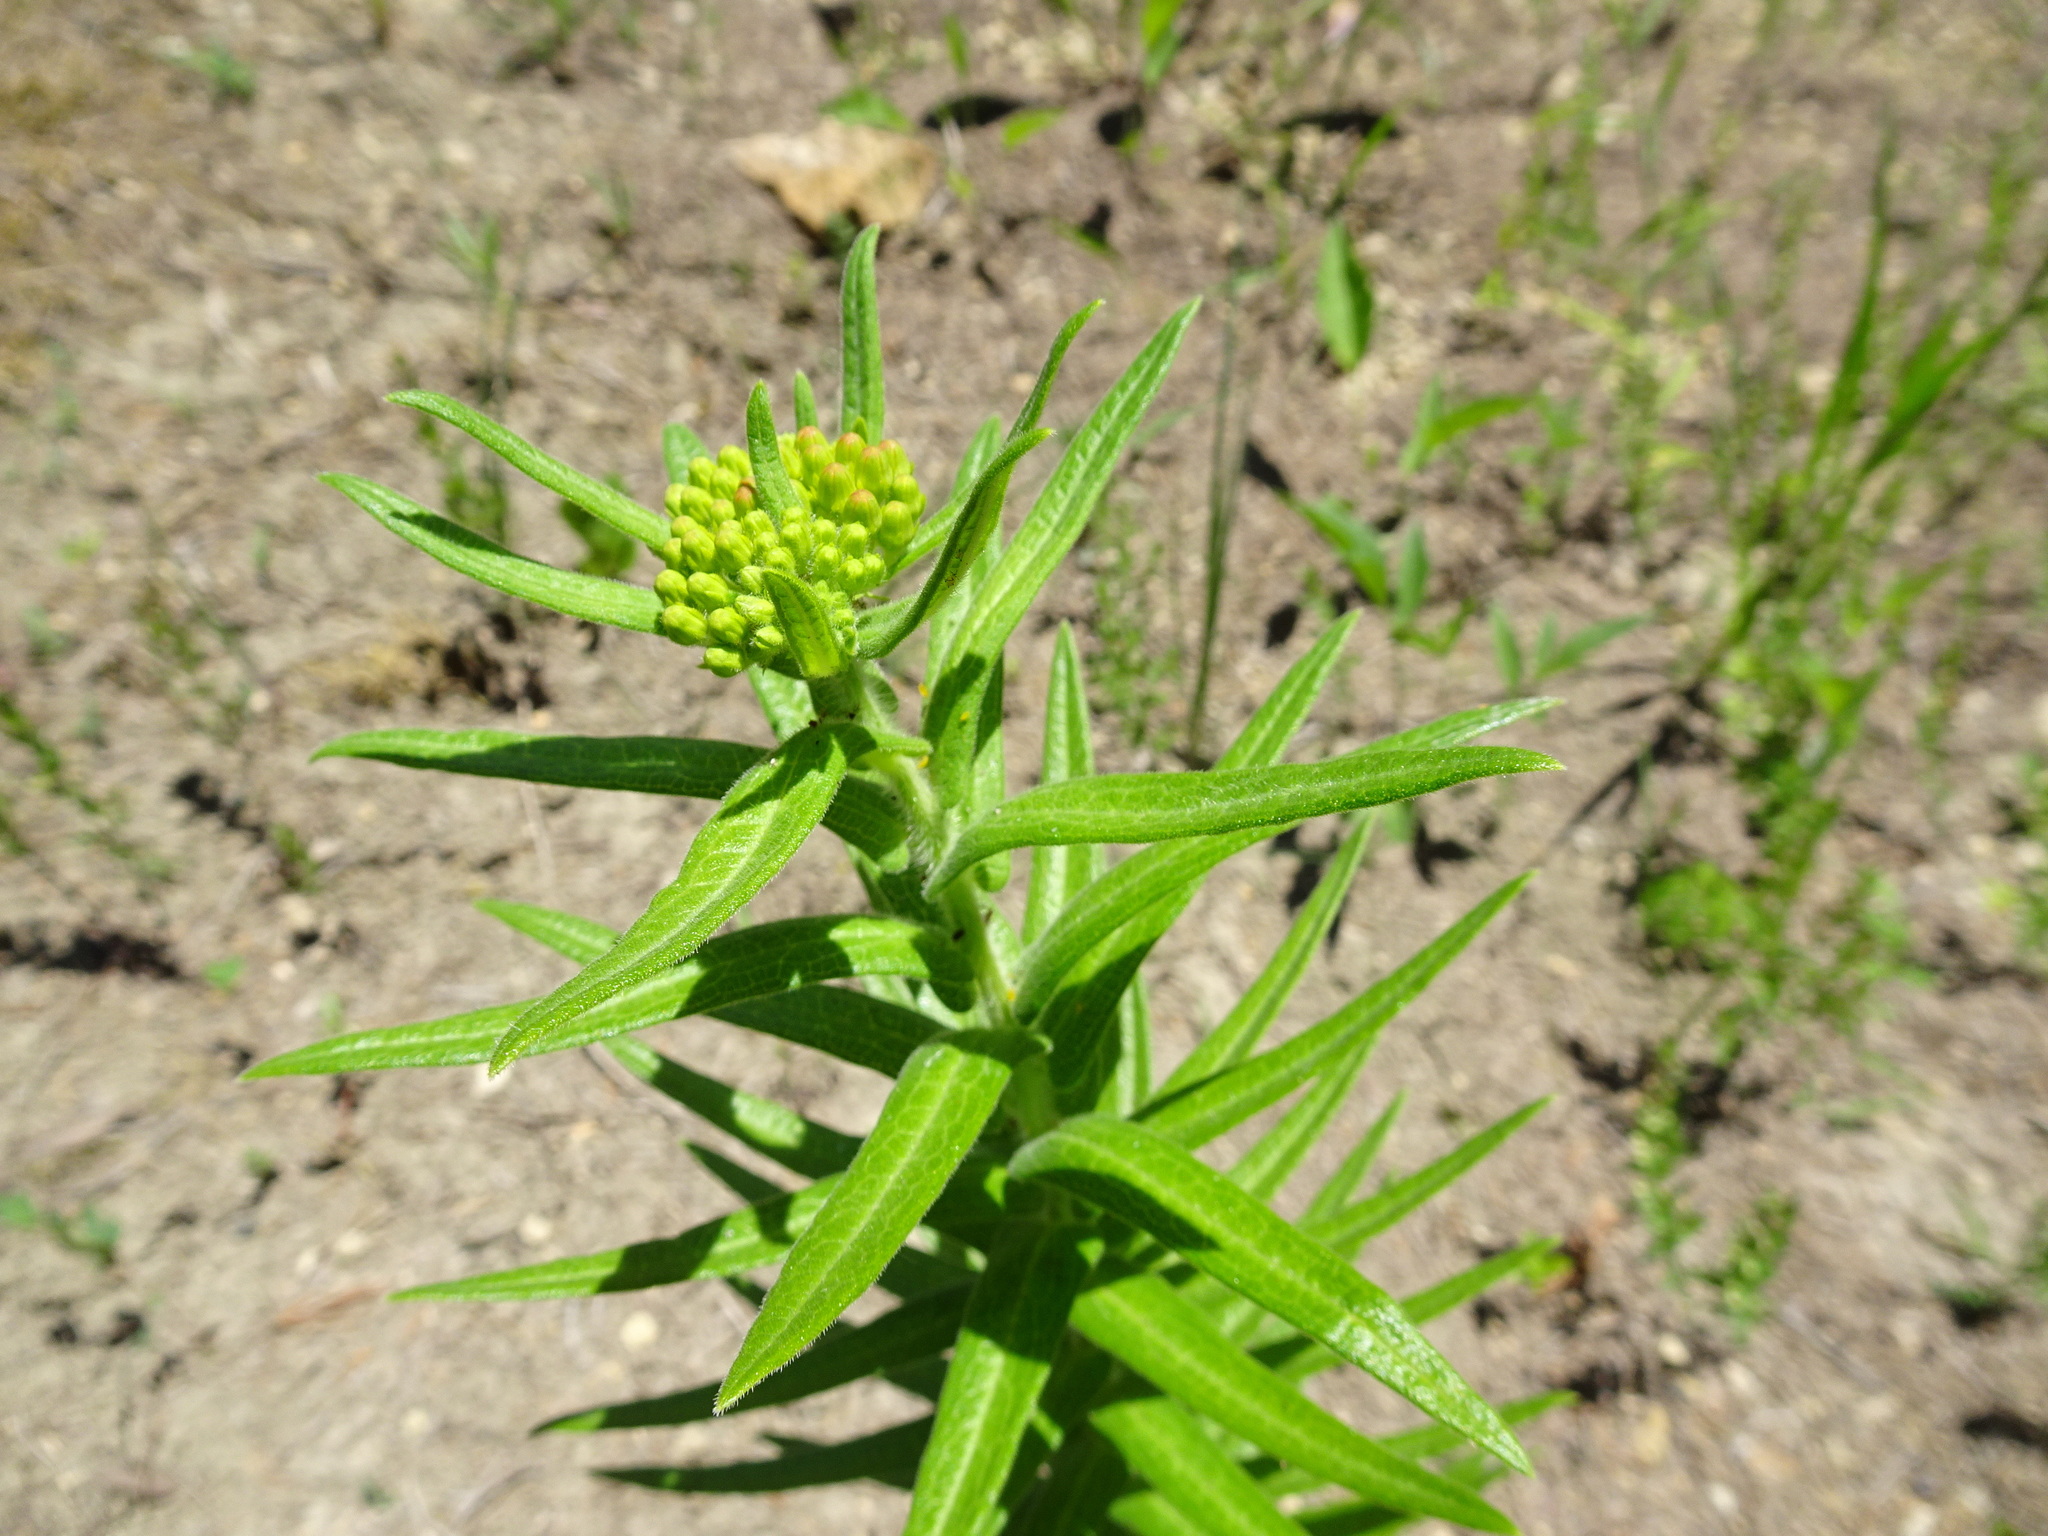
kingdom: Plantae
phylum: Tracheophyta
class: Magnoliopsida
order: Gentianales
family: Apocynaceae
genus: Asclepias
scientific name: Asclepias tuberosa
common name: Butterfly milkweed
